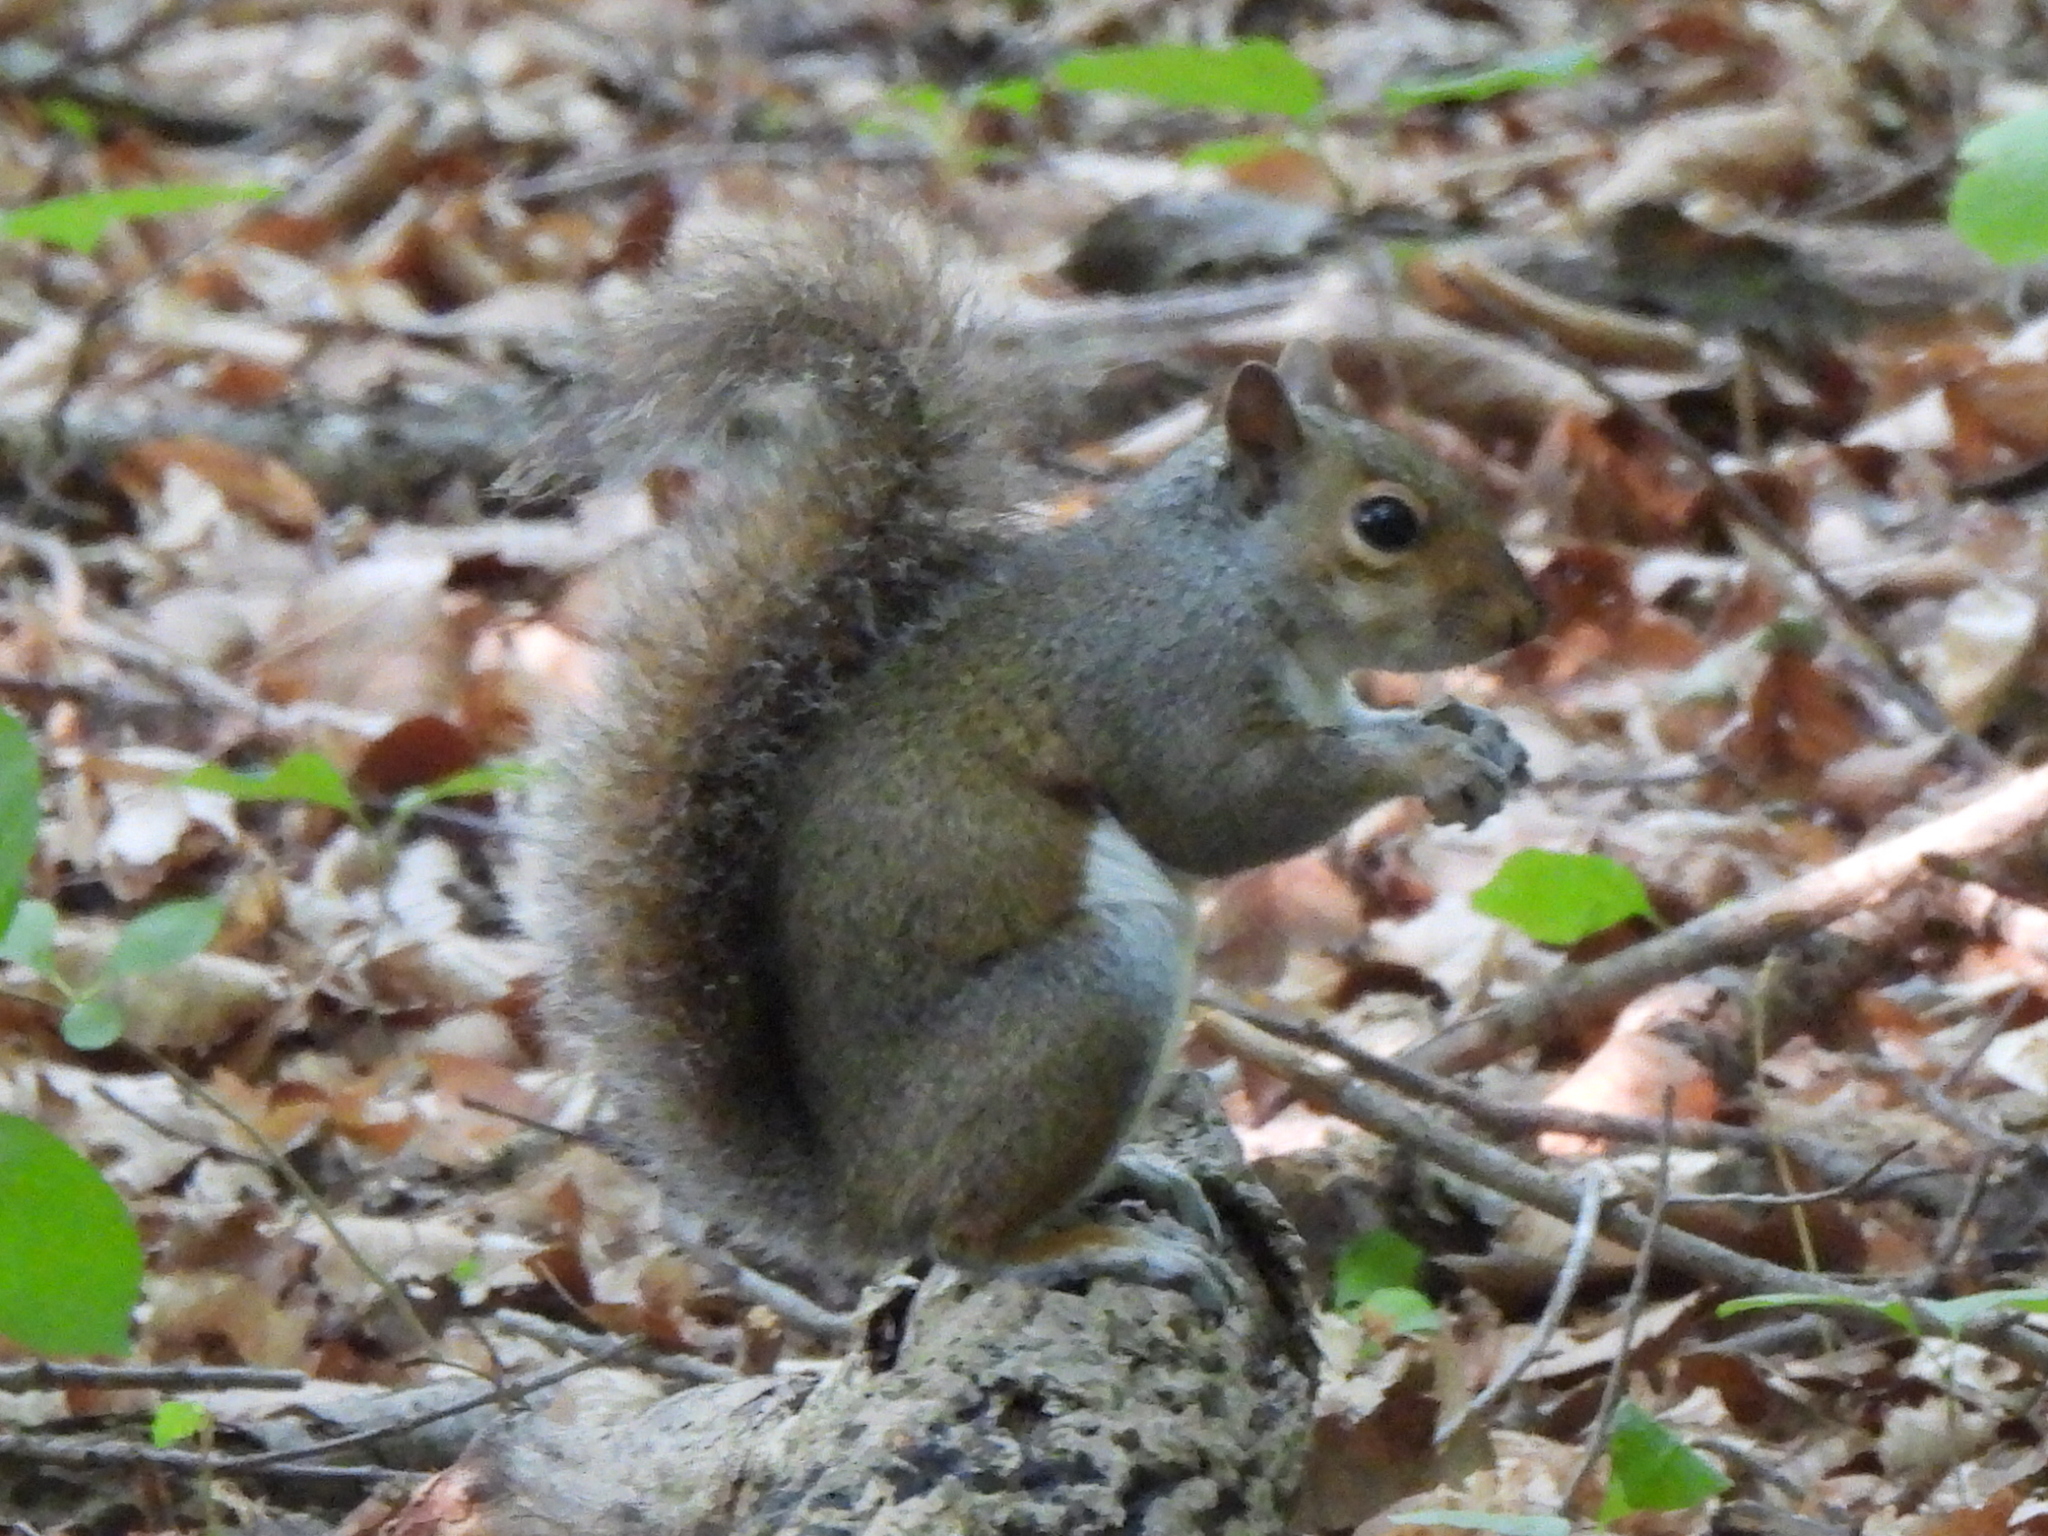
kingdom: Animalia
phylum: Chordata
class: Mammalia
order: Rodentia
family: Sciuridae
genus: Sciurus
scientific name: Sciurus carolinensis
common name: Eastern gray squirrel
